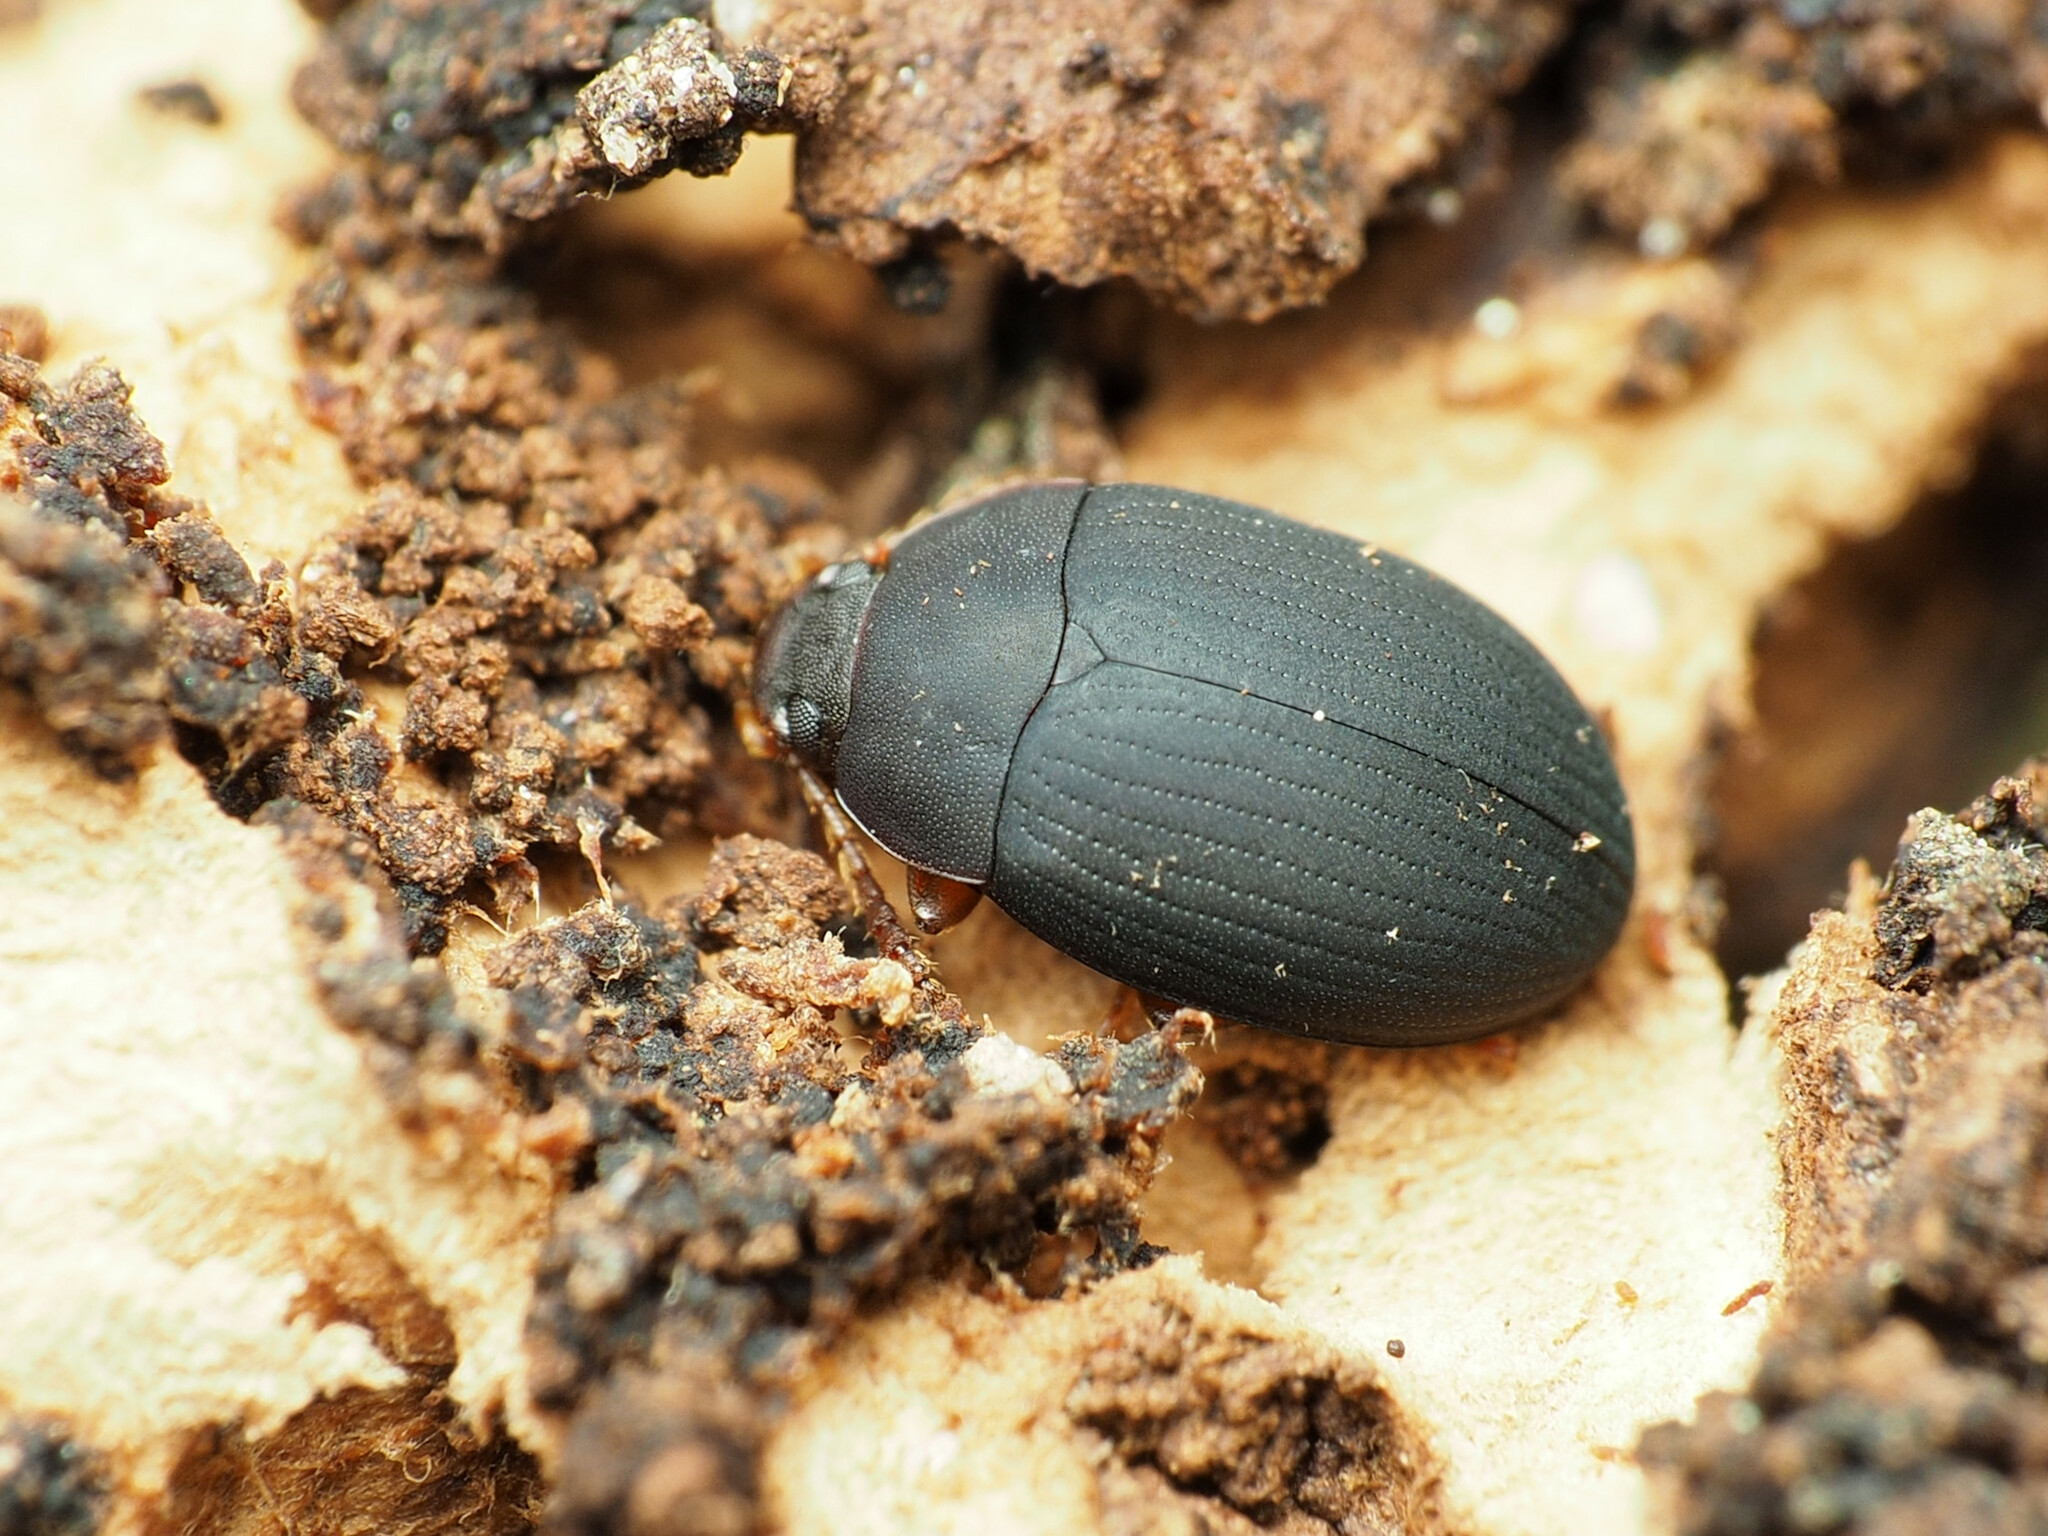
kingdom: Animalia
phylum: Arthropoda
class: Insecta
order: Coleoptera
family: Tenebrionidae
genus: Platydema
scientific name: Platydema ruficornis
